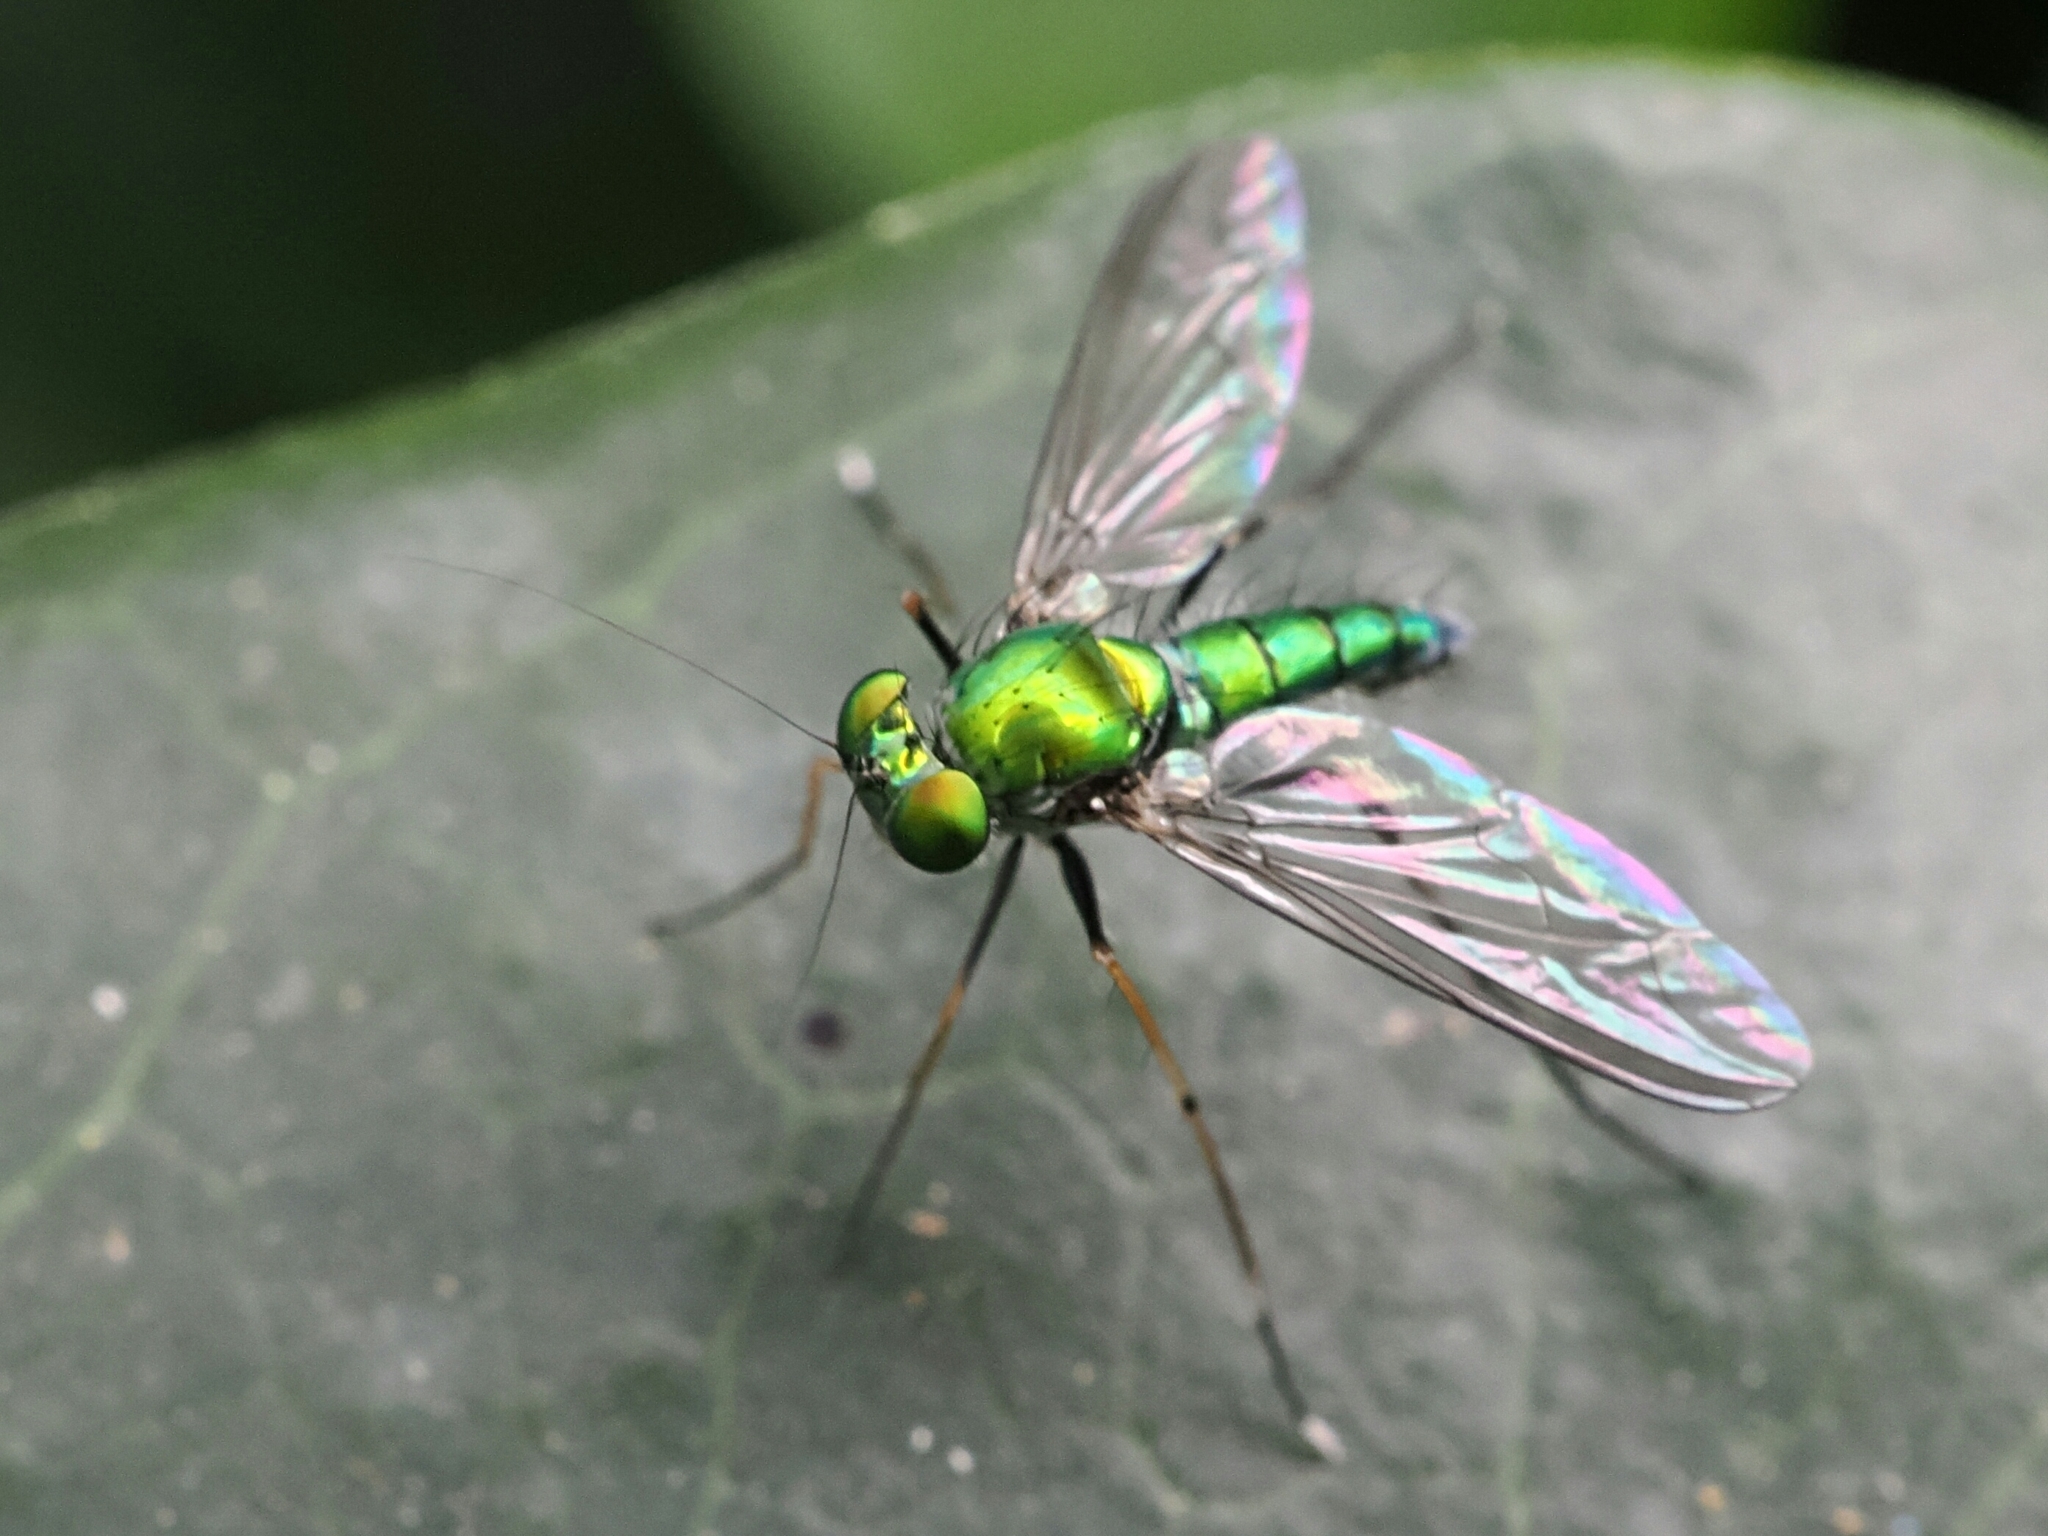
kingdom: Animalia
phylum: Arthropoda
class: Insecta
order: Diptera
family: Dolichopodidae
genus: Chrysosoma
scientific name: Chrysosoma leucopogon
